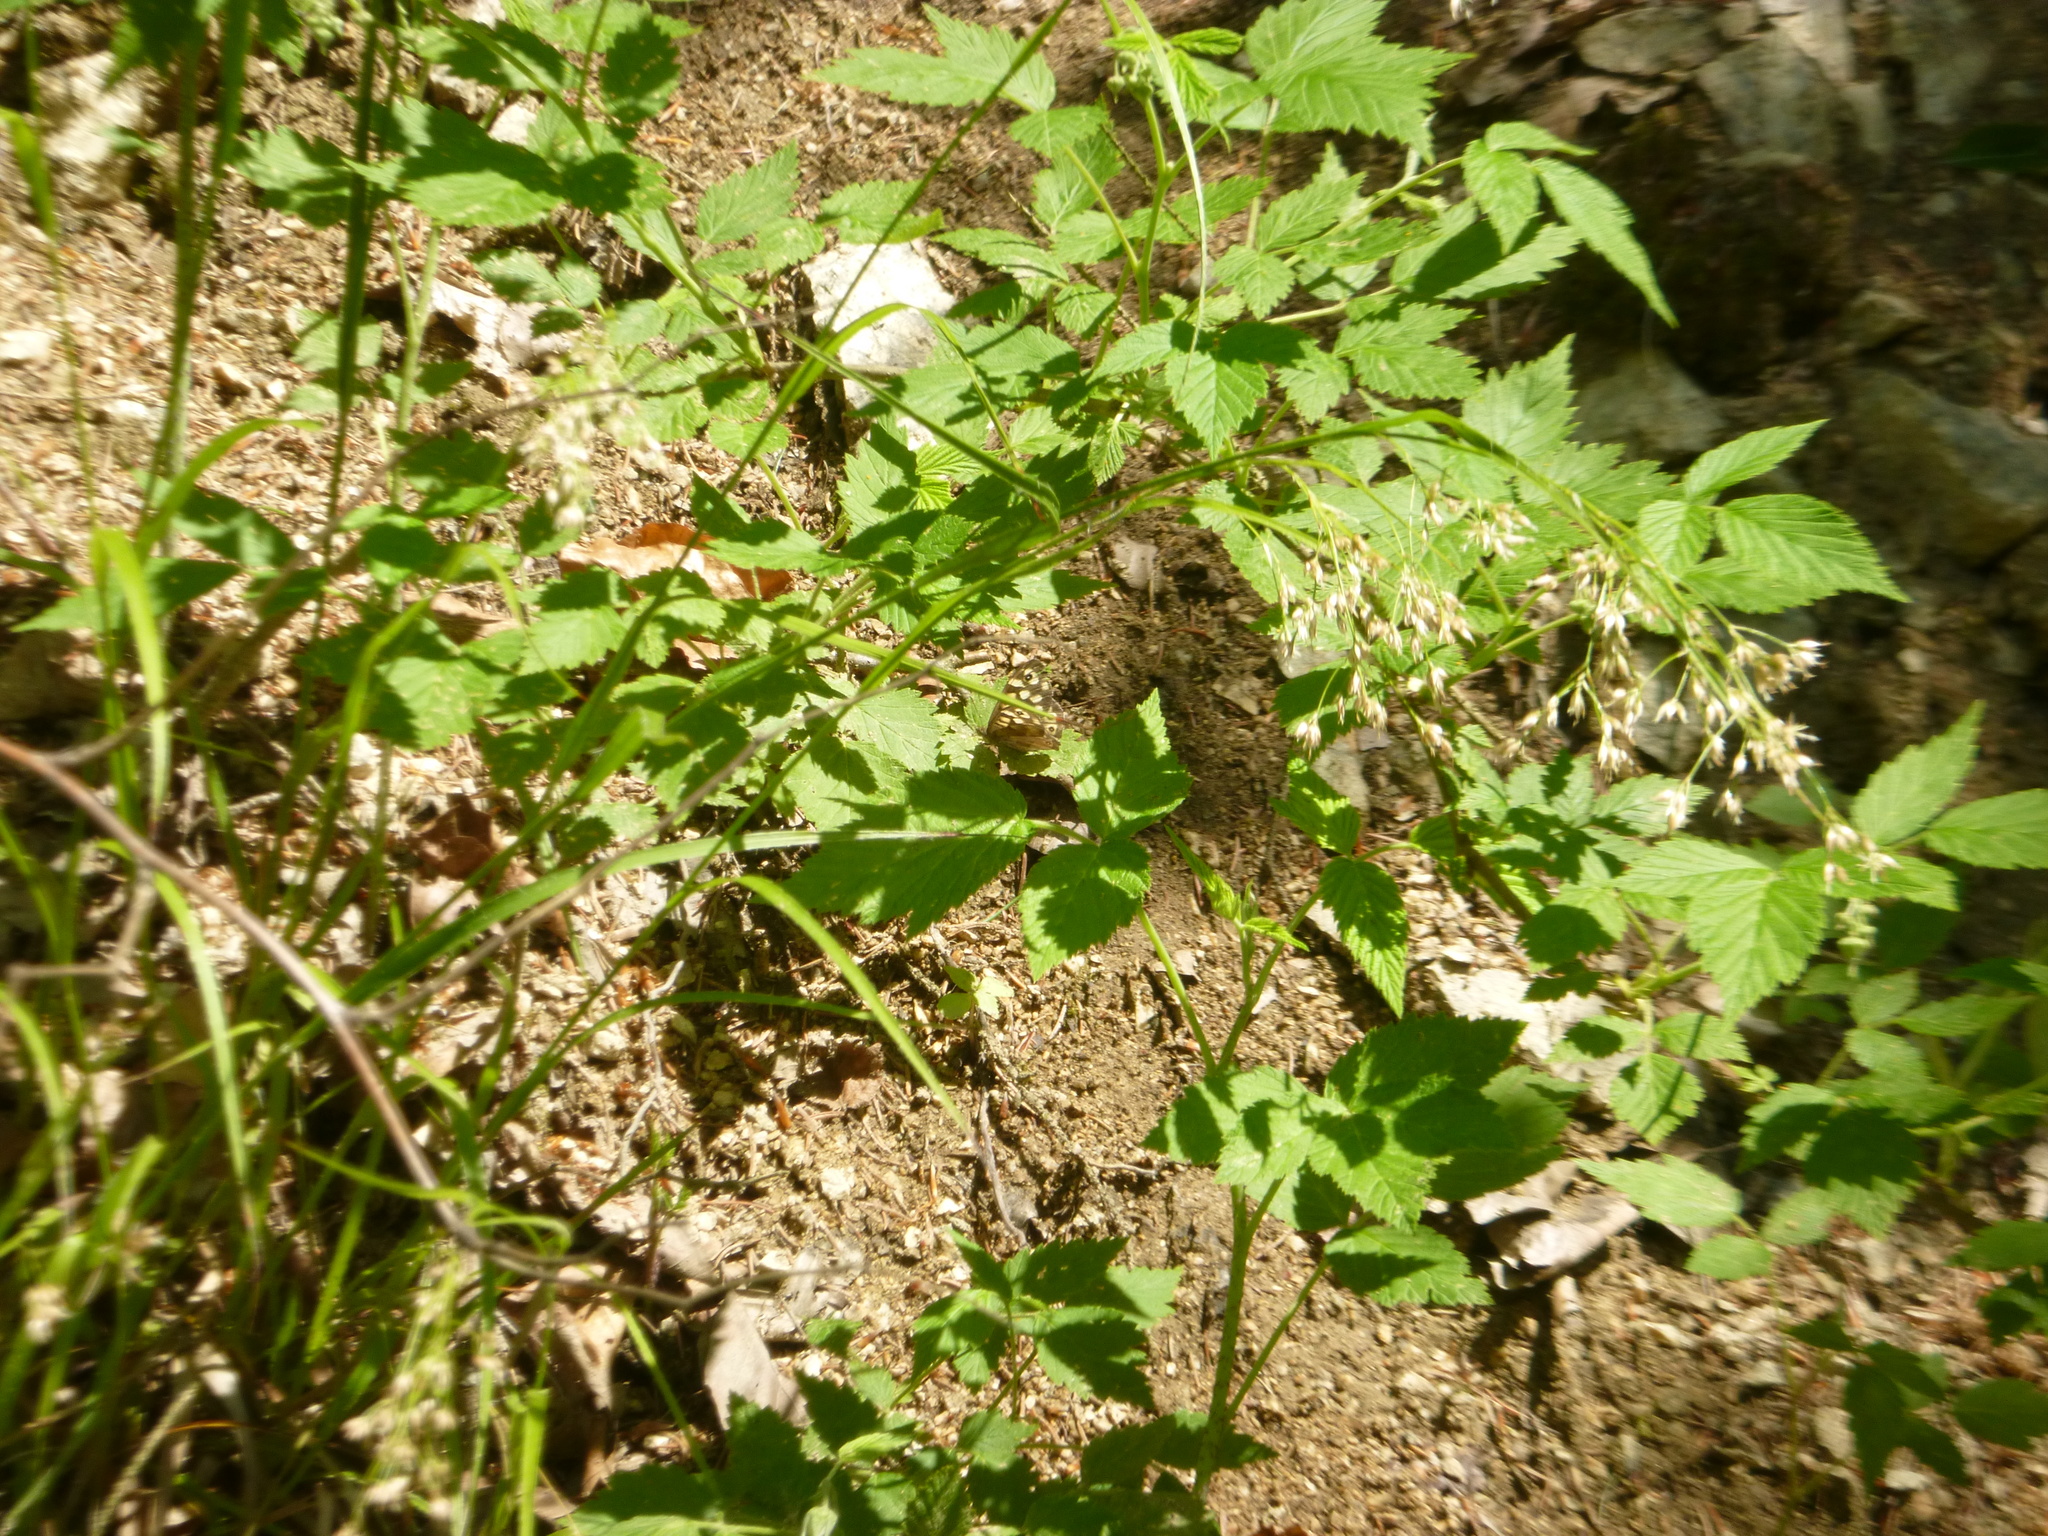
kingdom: Plantae
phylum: Tracheophyta
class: Liliopsida
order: Poales
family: Juncaceae
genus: Luzula
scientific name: Luzula luzuloides
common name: White wood-rush
